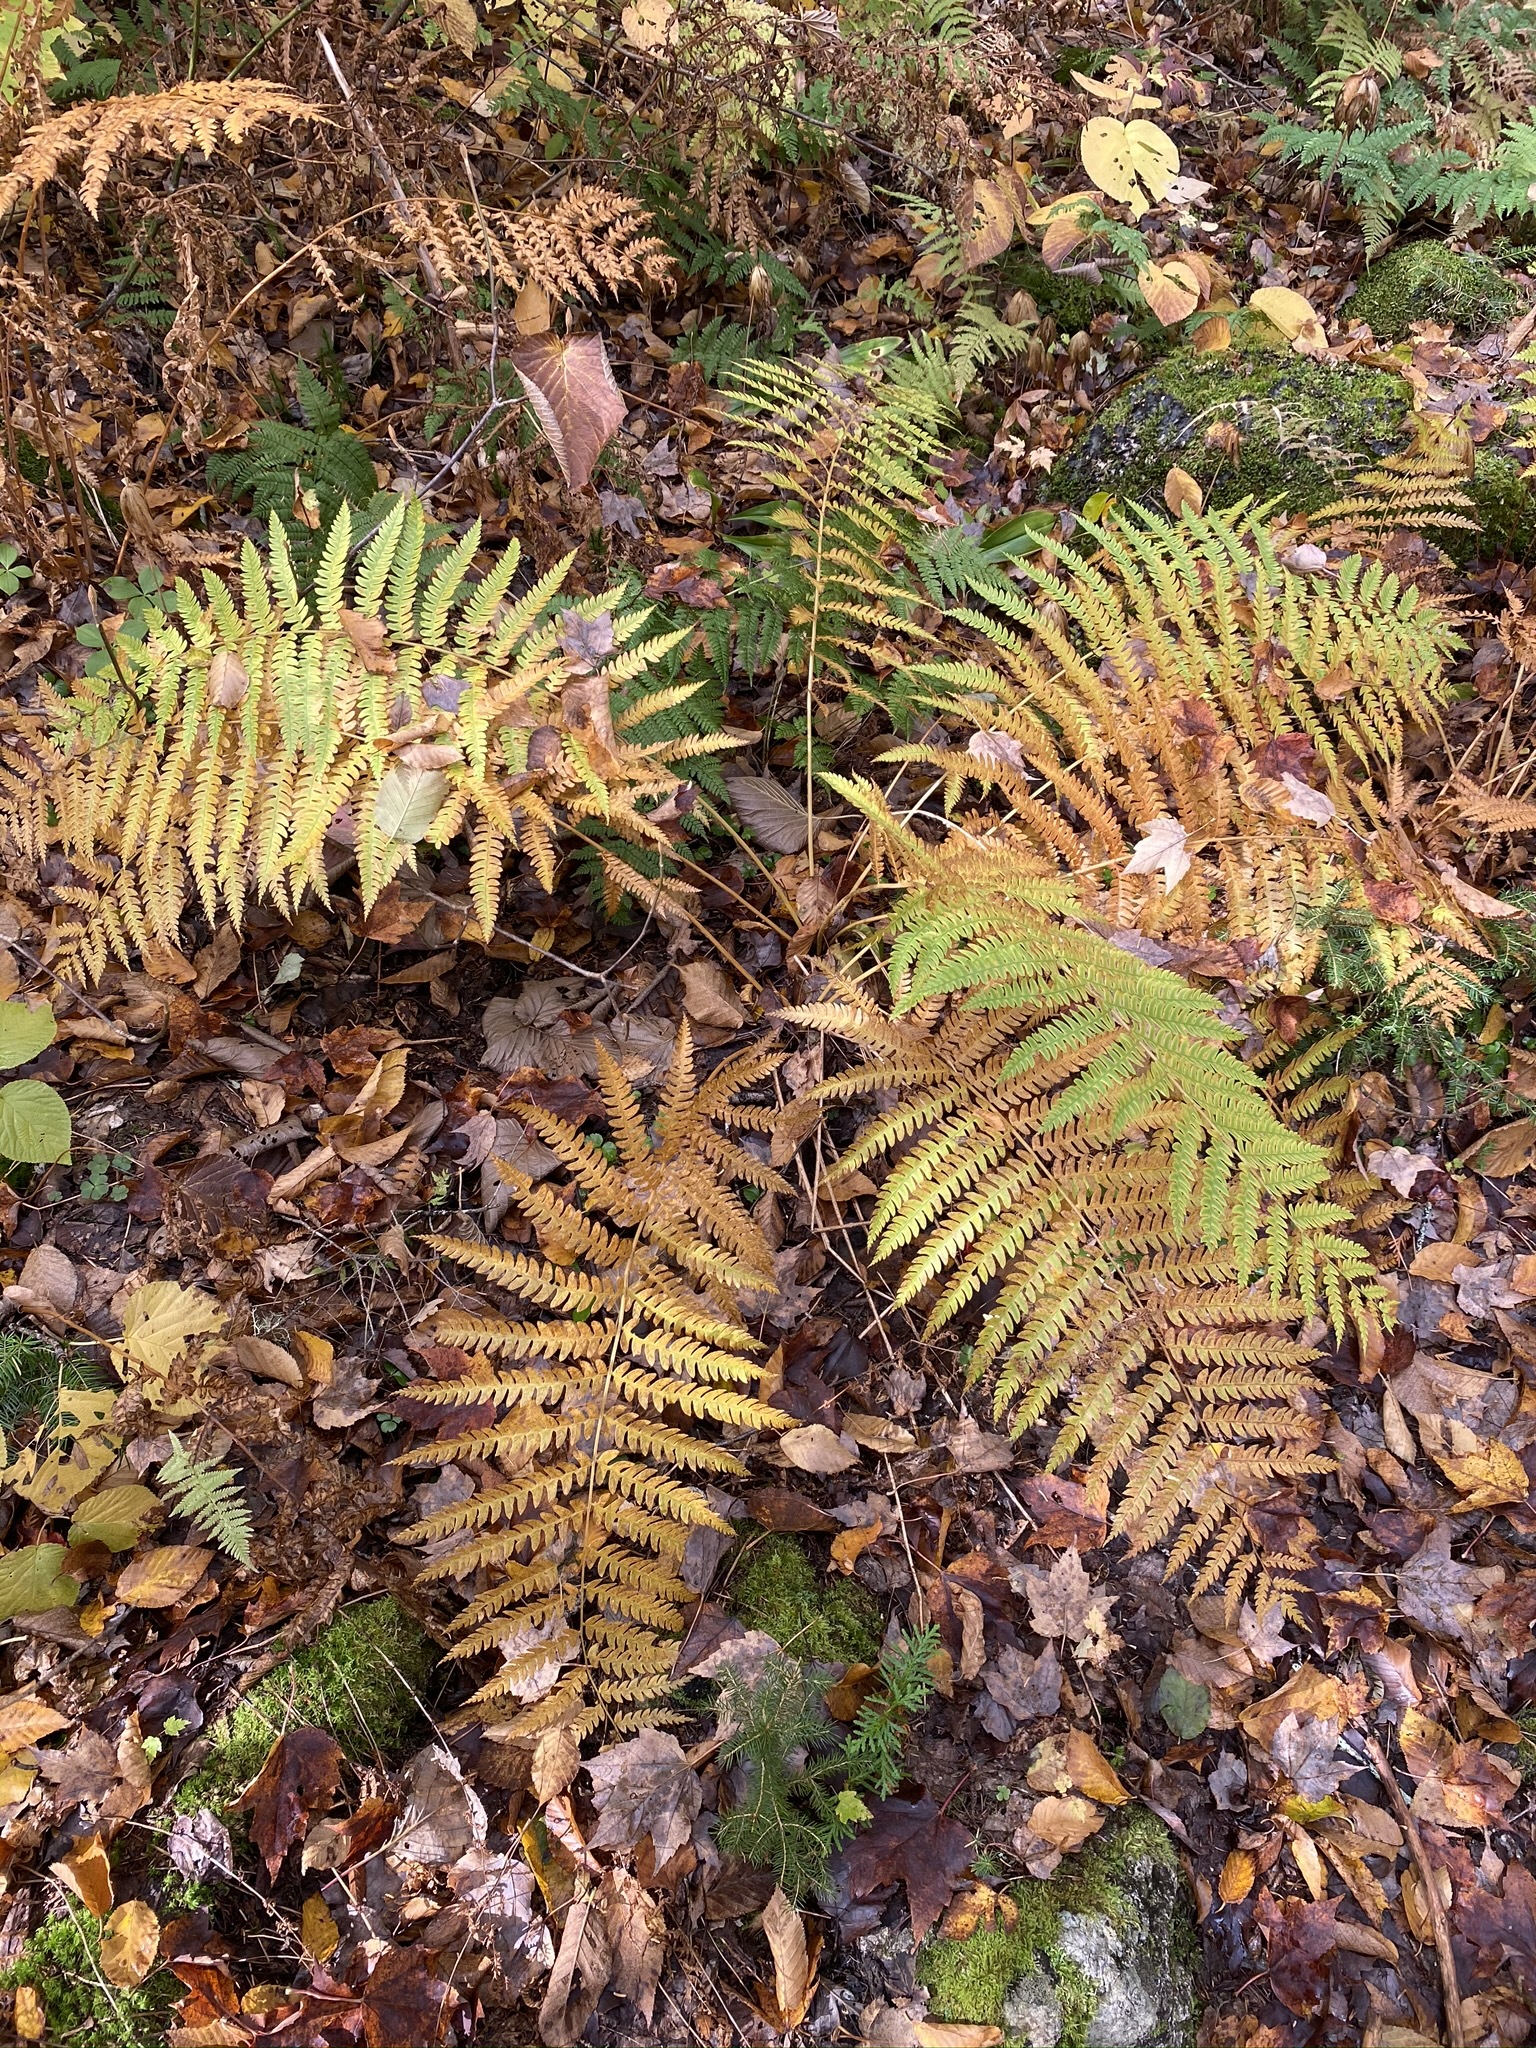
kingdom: Plantae
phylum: Tracheophyta
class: Polypodiopsida
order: Osmundales
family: Osmundaceae
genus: Osmundastrum
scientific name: Osmundastrum cinnamomeum
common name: Cinnamon fern
